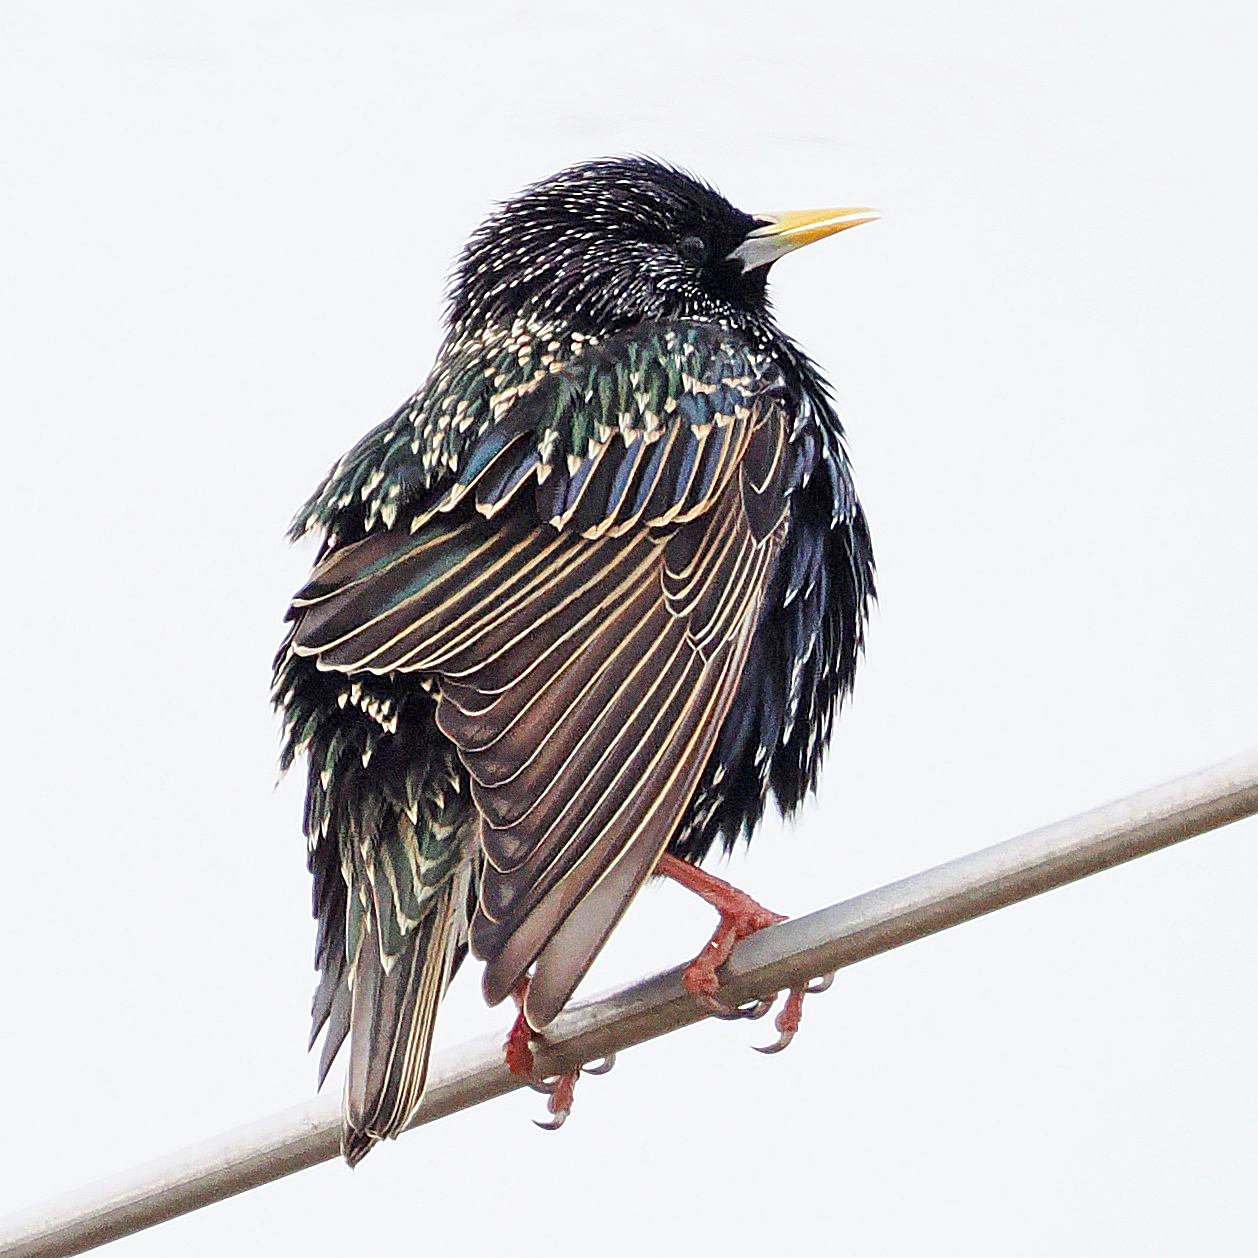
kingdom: Animalia
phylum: Chordata
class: Aves
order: Passeriformes
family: Sturnidae
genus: Sturnus
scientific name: Sturnus vulgaris
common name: Common starling
